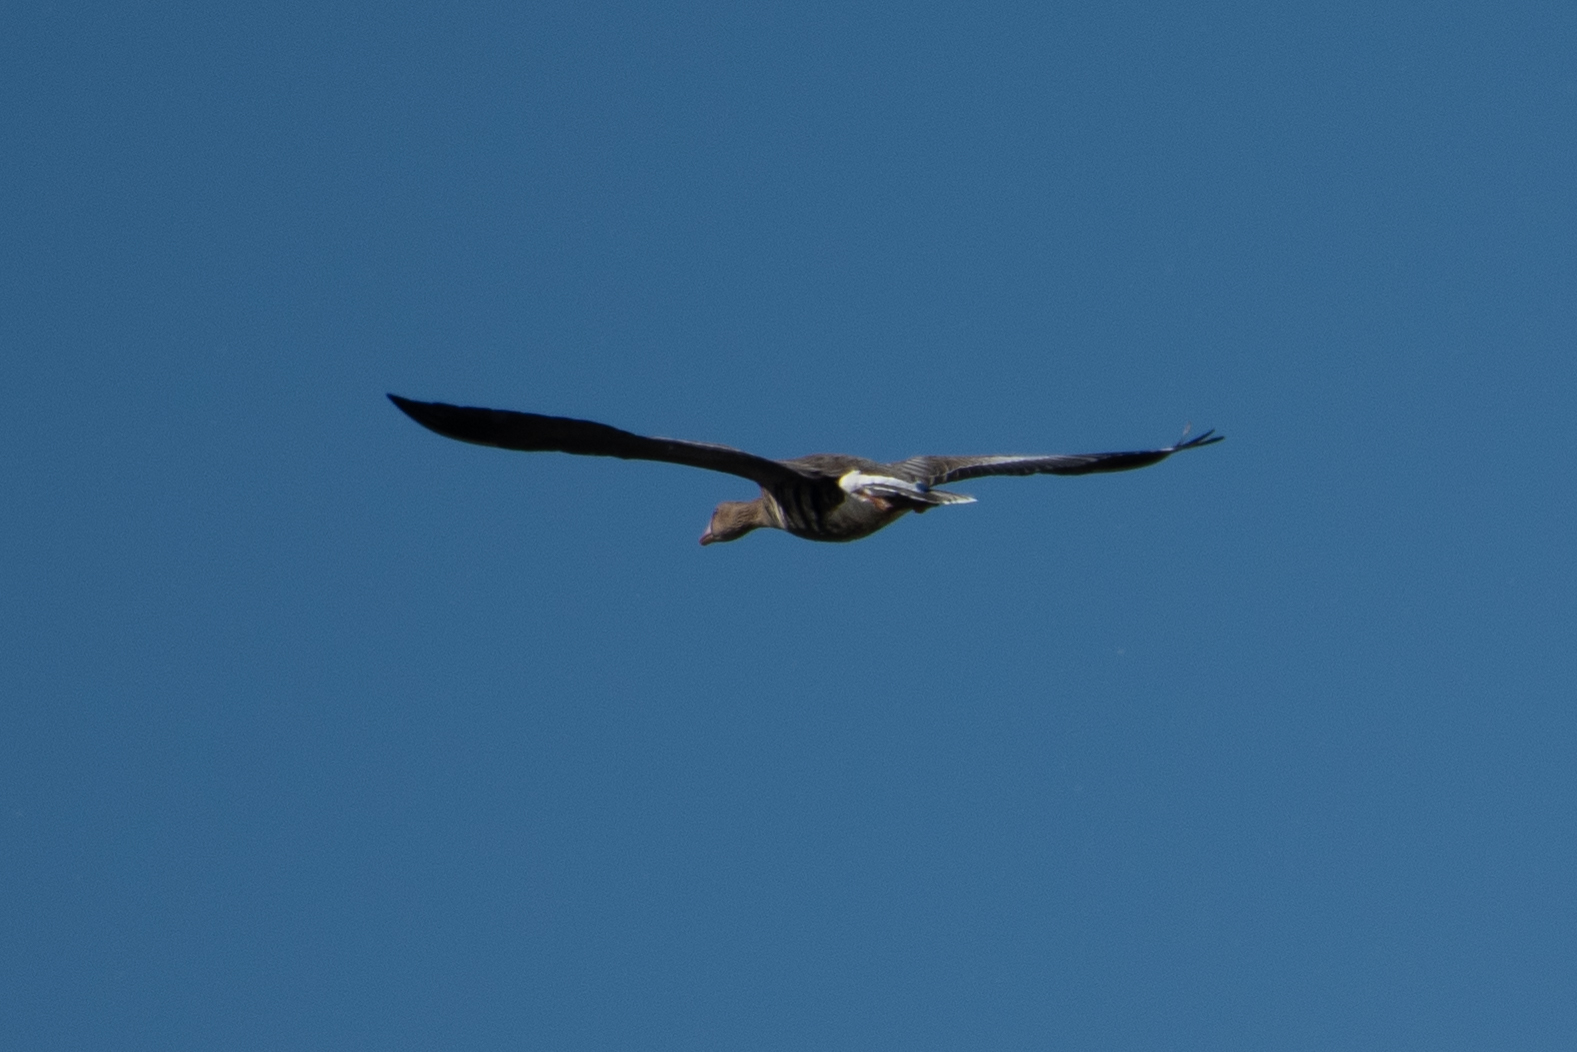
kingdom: Animalia
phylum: Chordata
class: Aves
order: Anseriformes
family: Anatidae
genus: Anser
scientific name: Anser albifrons
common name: Greater white-fronted goose
